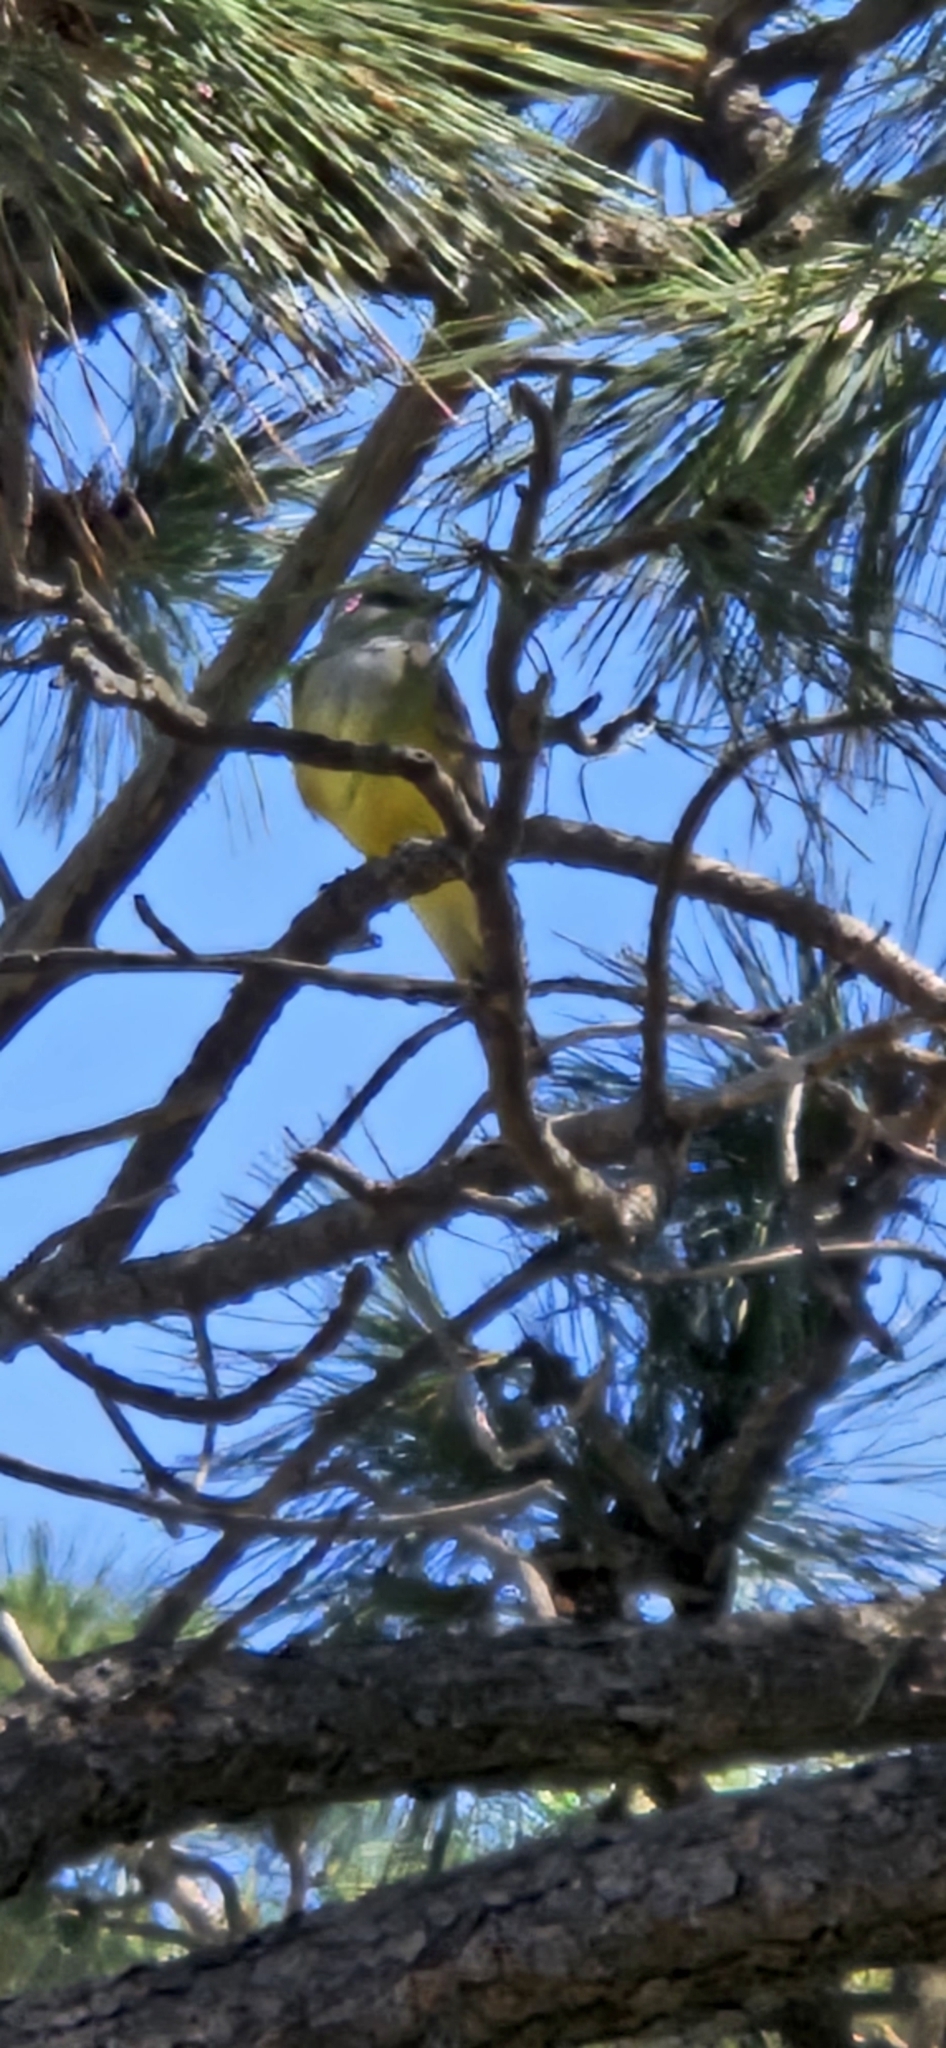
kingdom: Animalia
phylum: Chordata
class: Aves
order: Passeriformes
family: Tyrannidae
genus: Tyrannus
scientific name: Tyrannus verticalis
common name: Western kingbird
